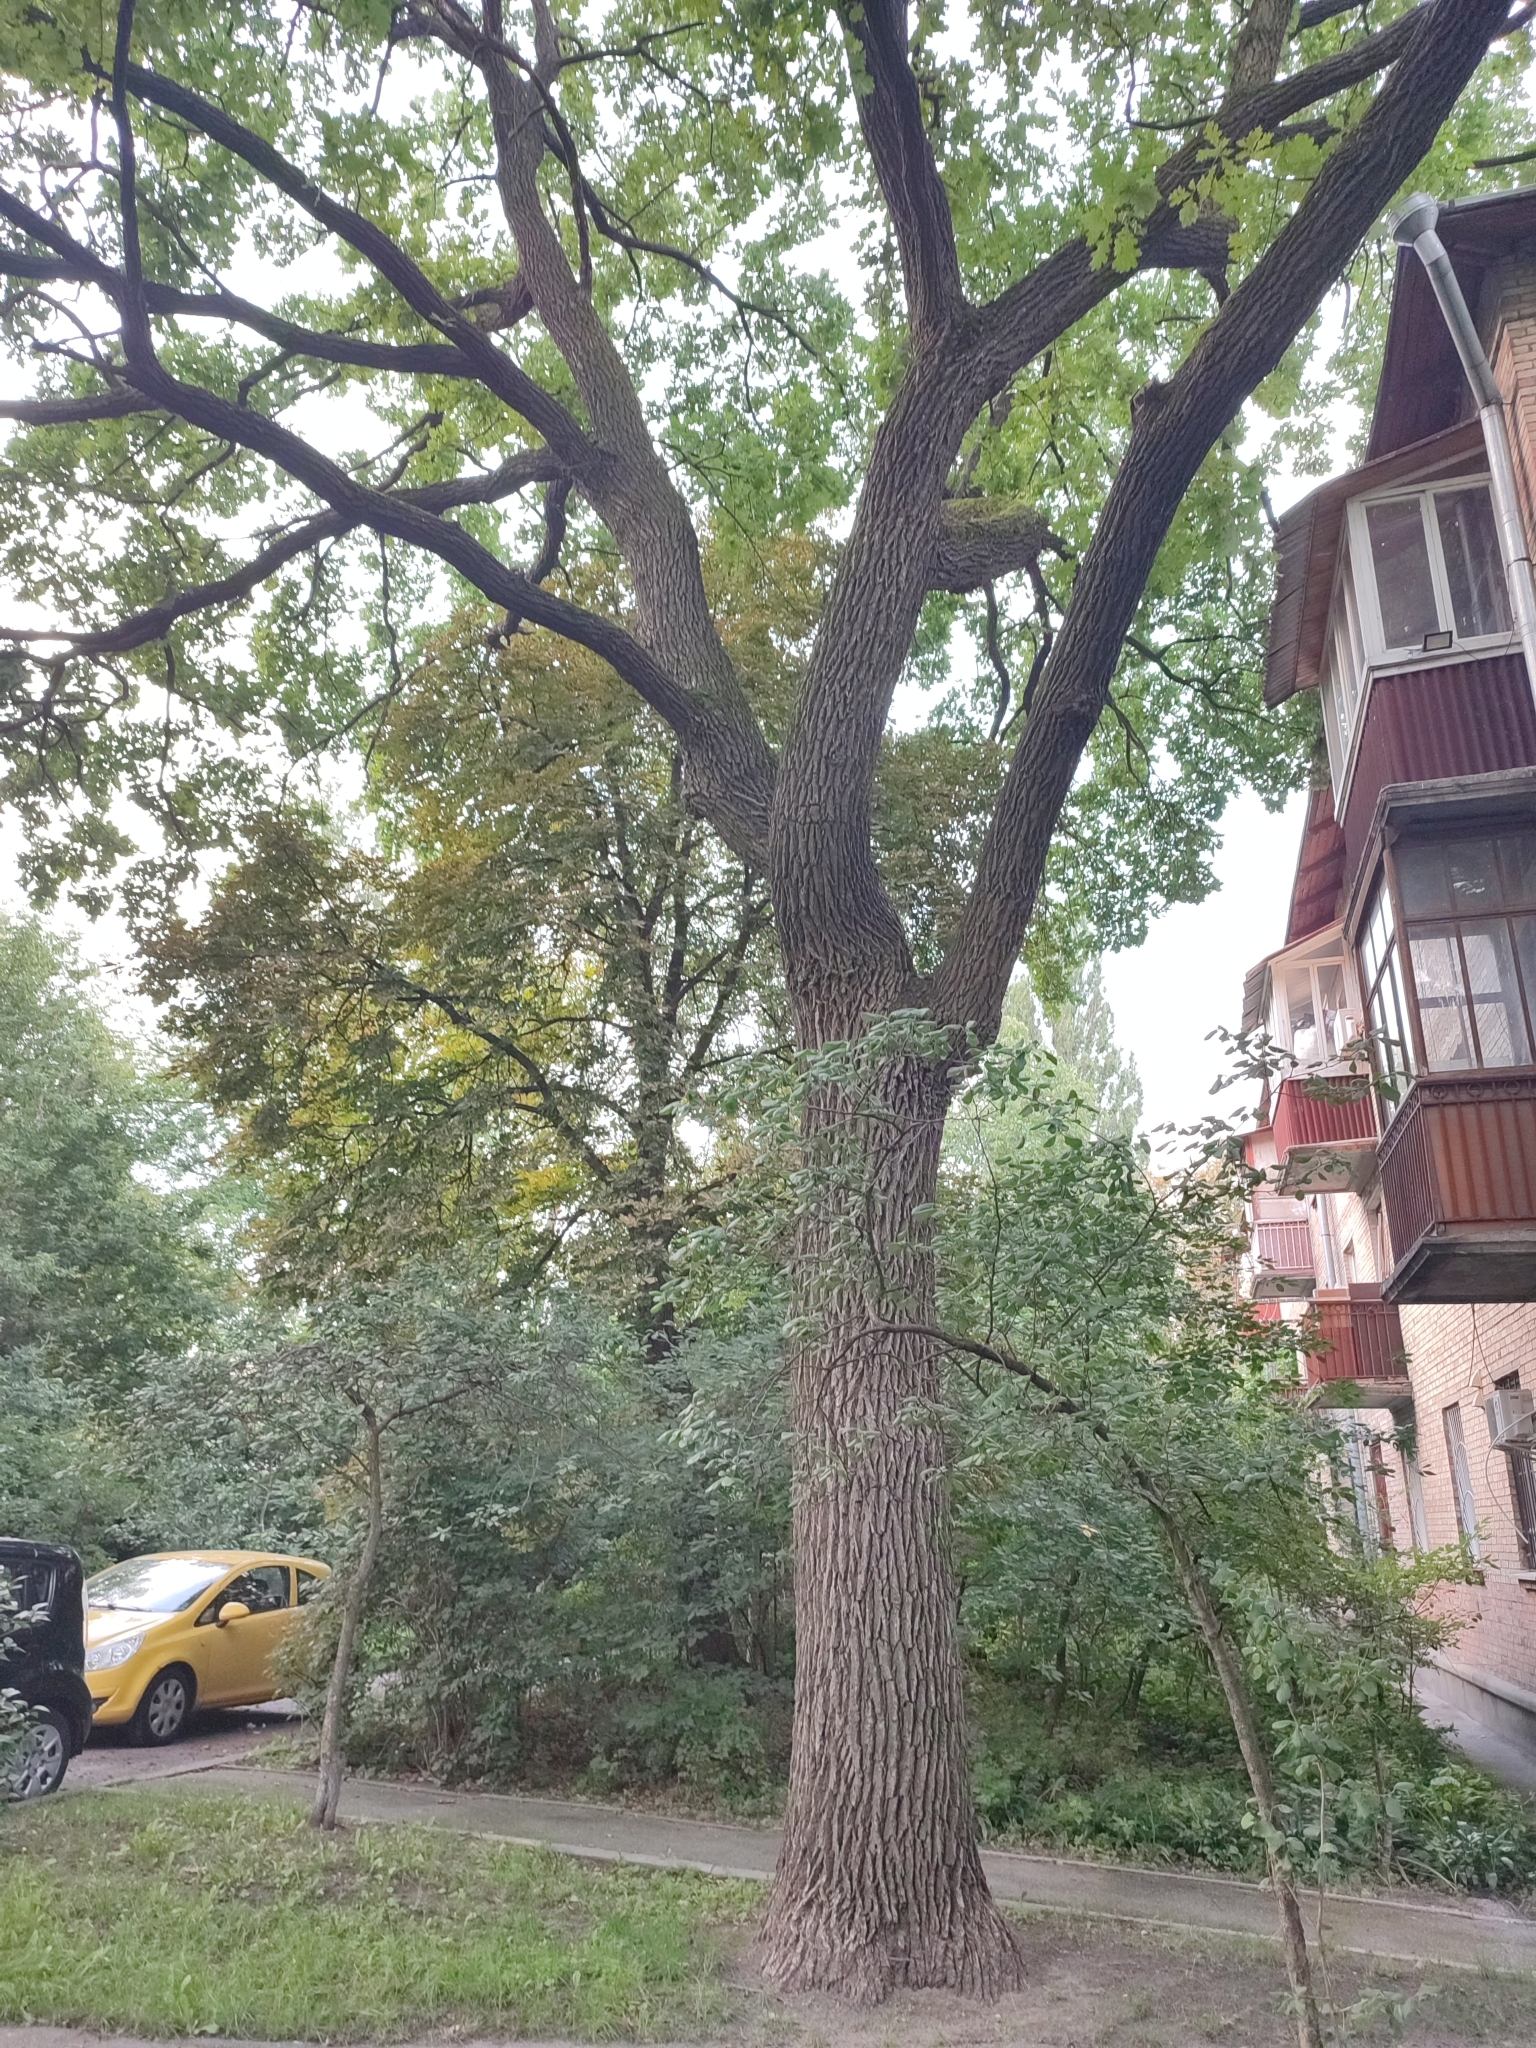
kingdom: Plantae
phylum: Tracheophyta
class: Magnoliopsida
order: Fagales
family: Fagaceae
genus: Quercus
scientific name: Quercus robur
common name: Pedunculate oak
